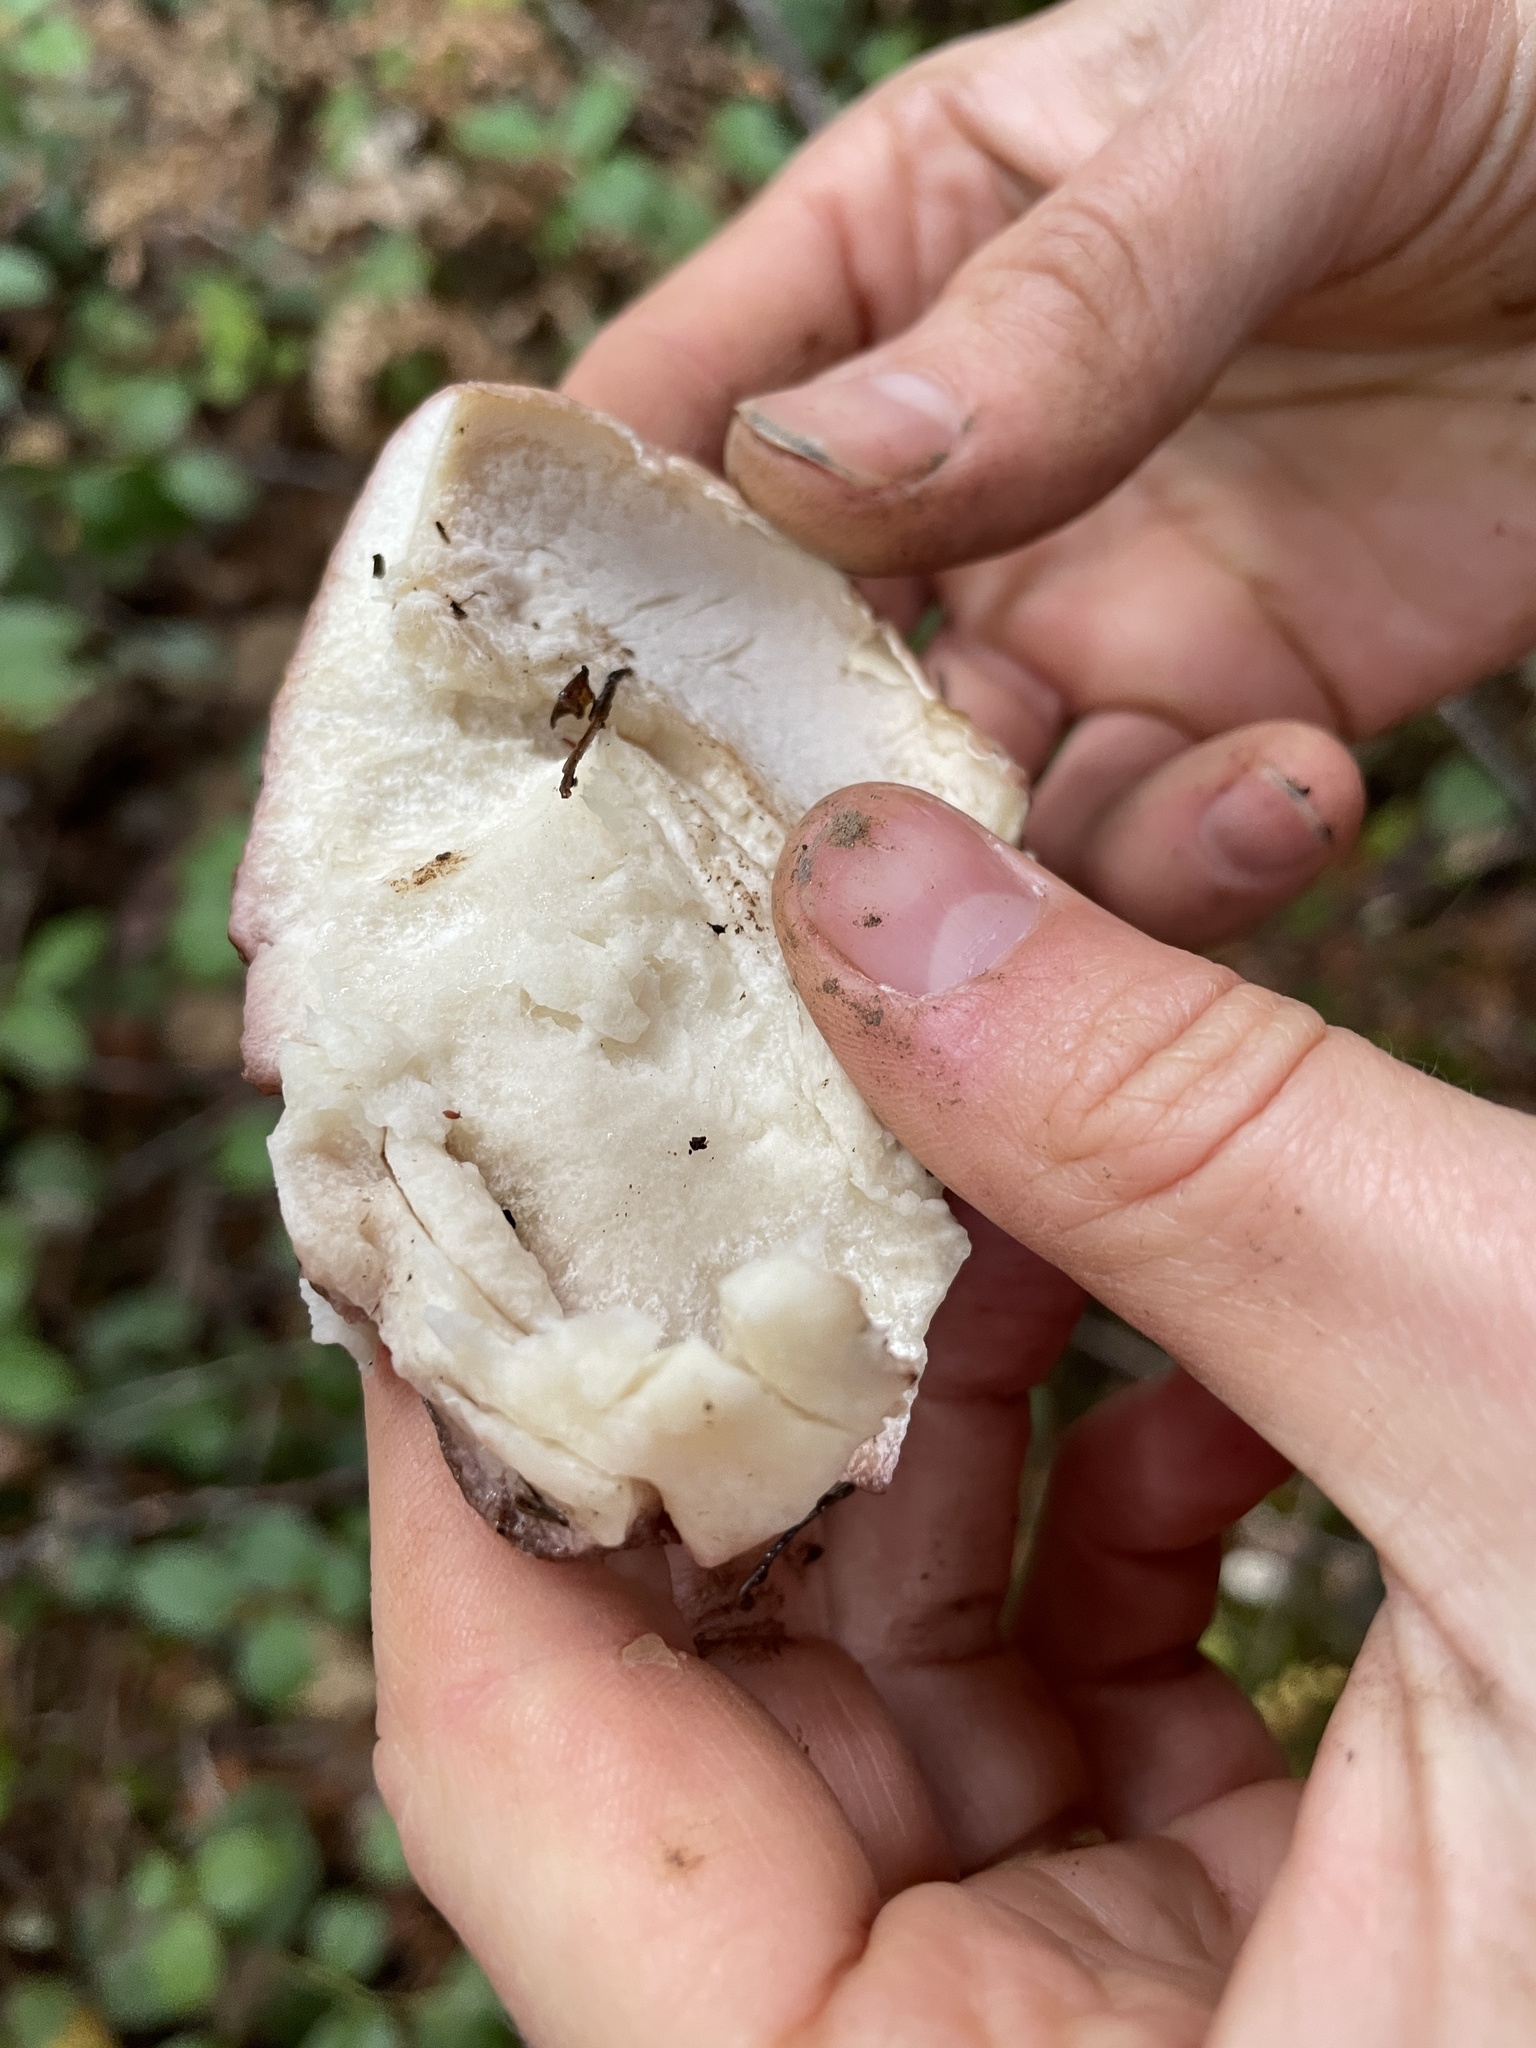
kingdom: Fungi
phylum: Basidiomycota
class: Agaricomycetes
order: Boletales
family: Boletaceae
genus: Boletus
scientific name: Boletus edulis
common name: Cep
